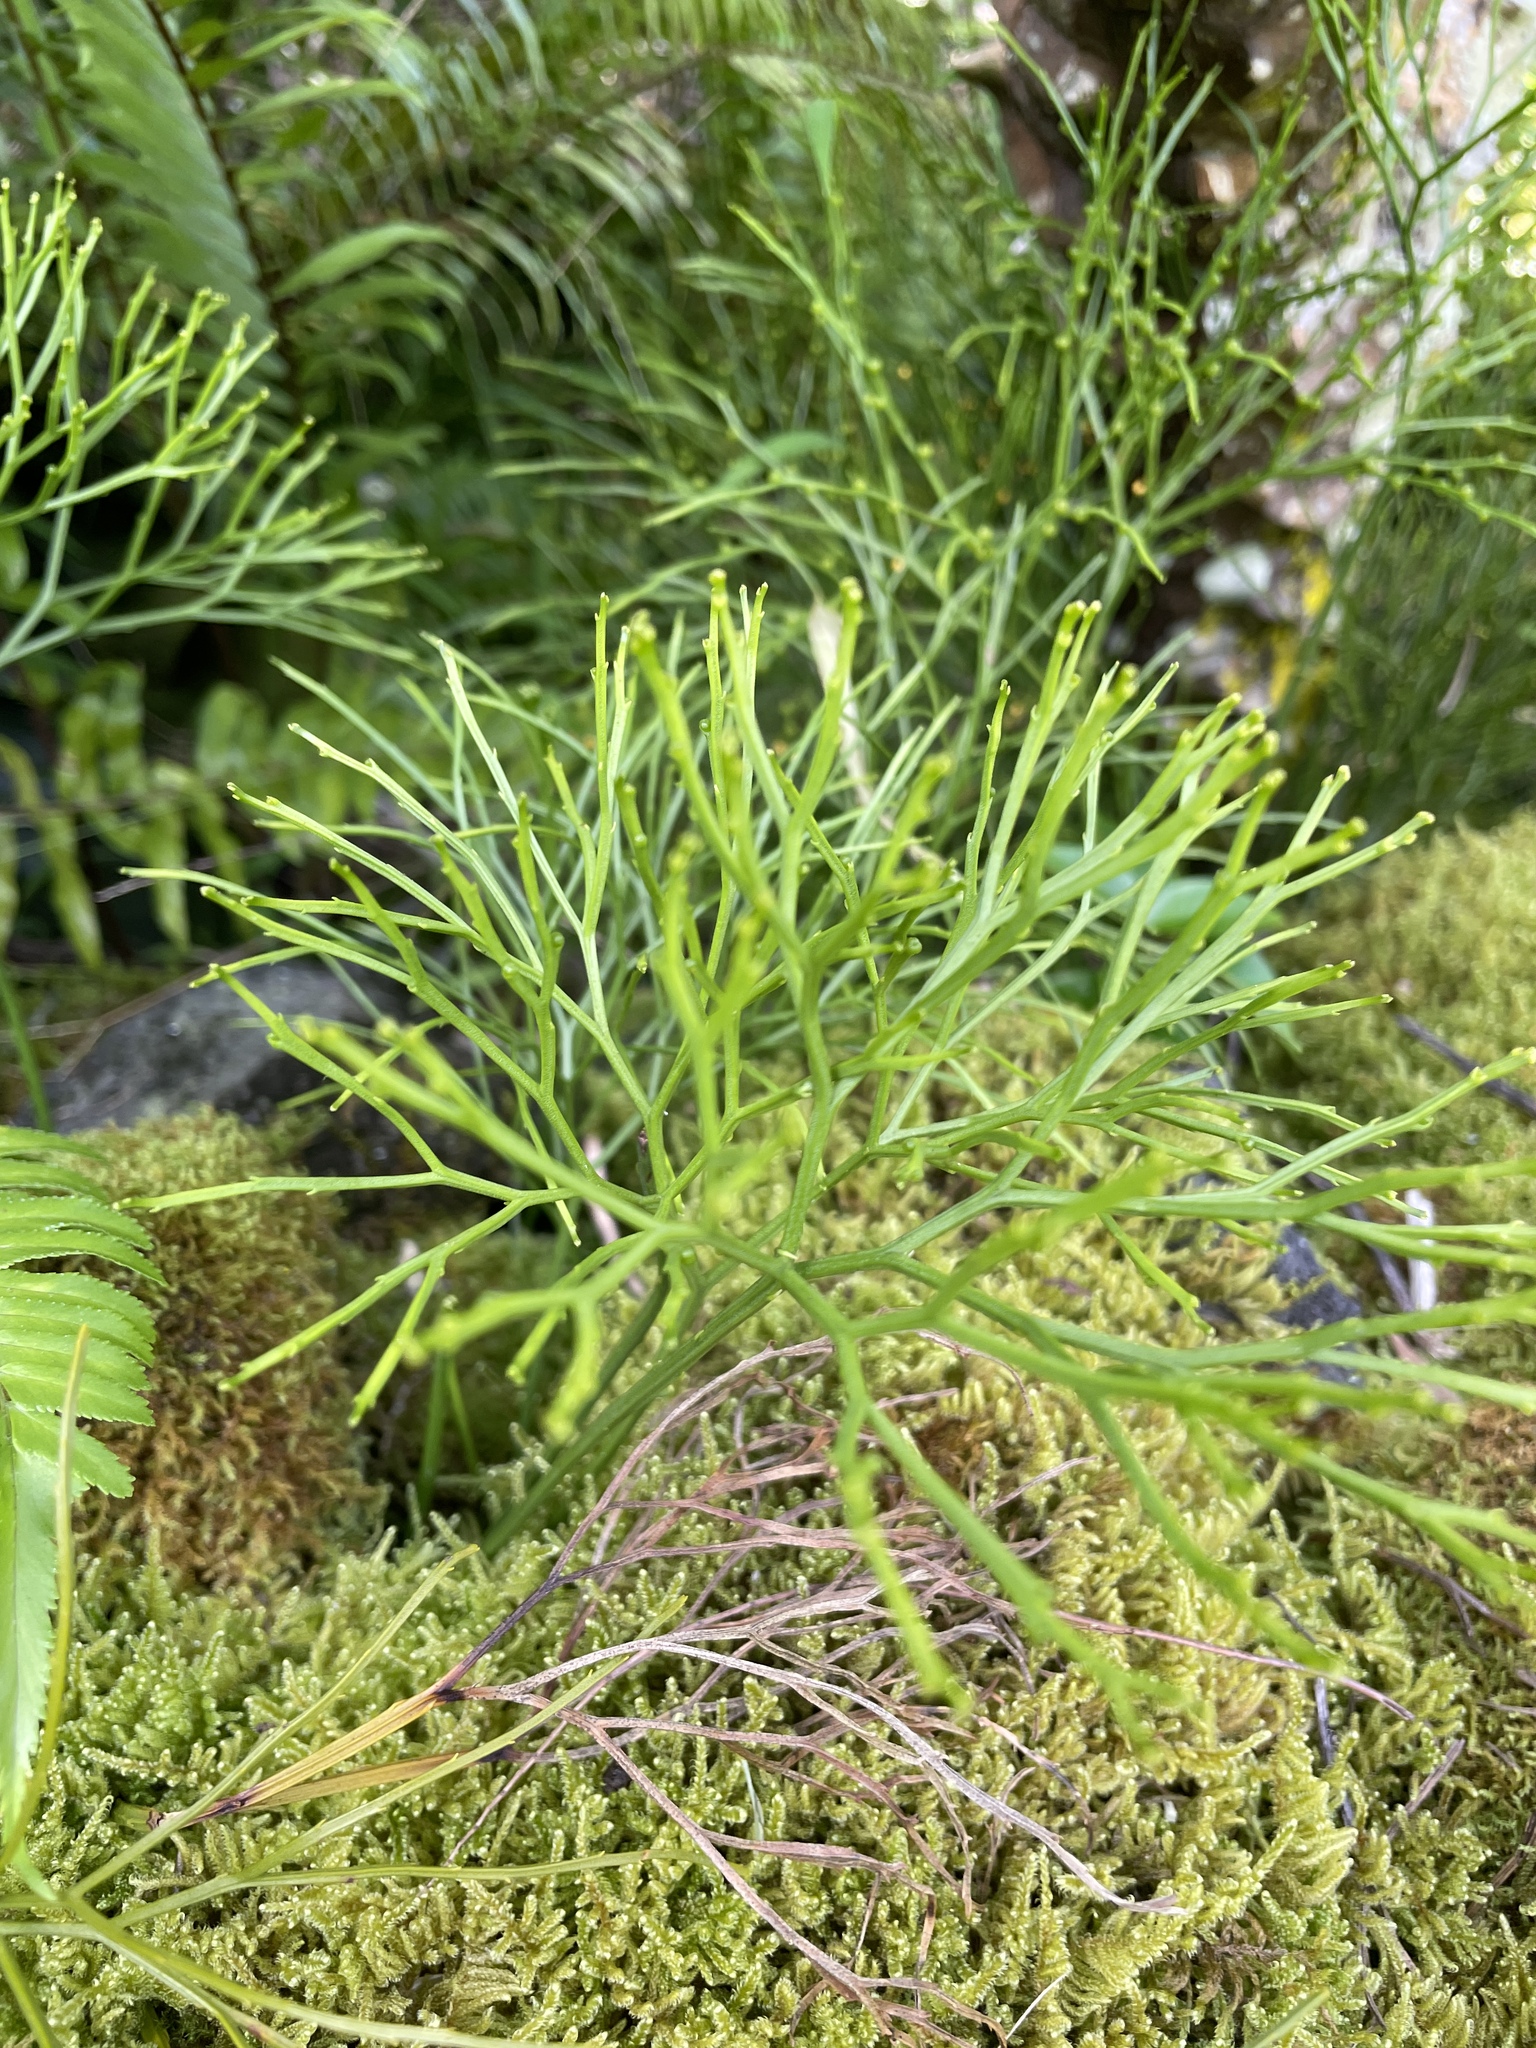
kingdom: Plantae
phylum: Tracheophyta
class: Polypodiopsida
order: Psilotales
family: Psilotaceae
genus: Psilotum
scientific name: Psilotum nudum
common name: Skeleton fork fern
